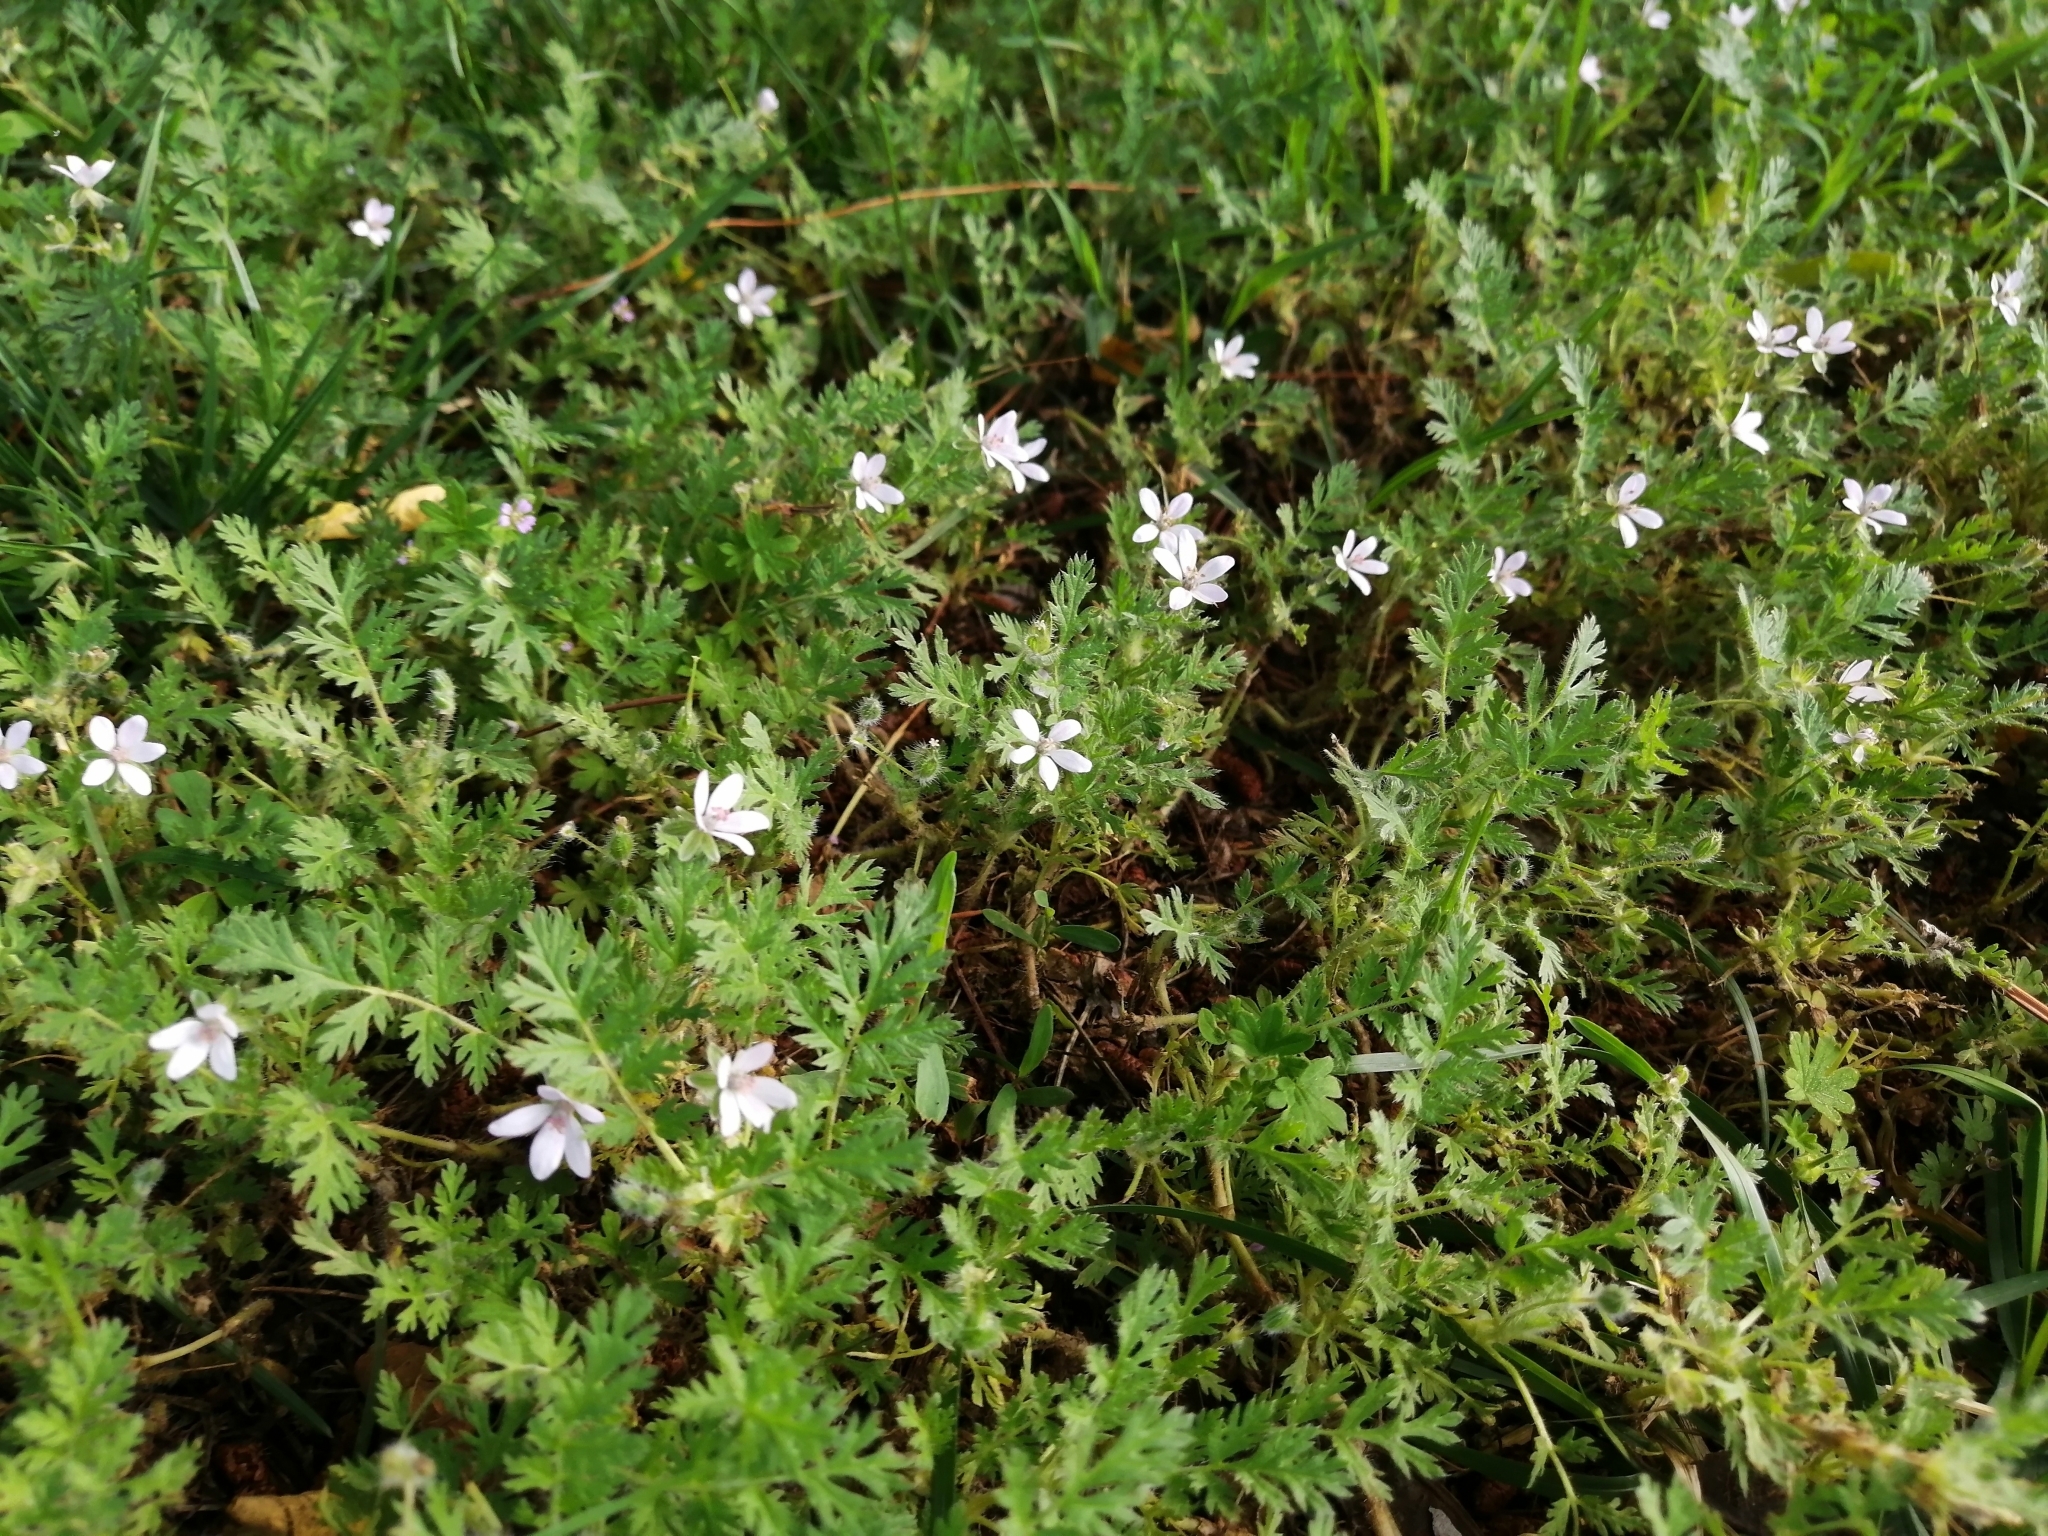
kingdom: Plantae
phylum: Tracheophyta
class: Magnoliopsida
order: Geraniales
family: Geraniaceae
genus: Erodium
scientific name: Erodium cicutarium
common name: Common stork's-bill
